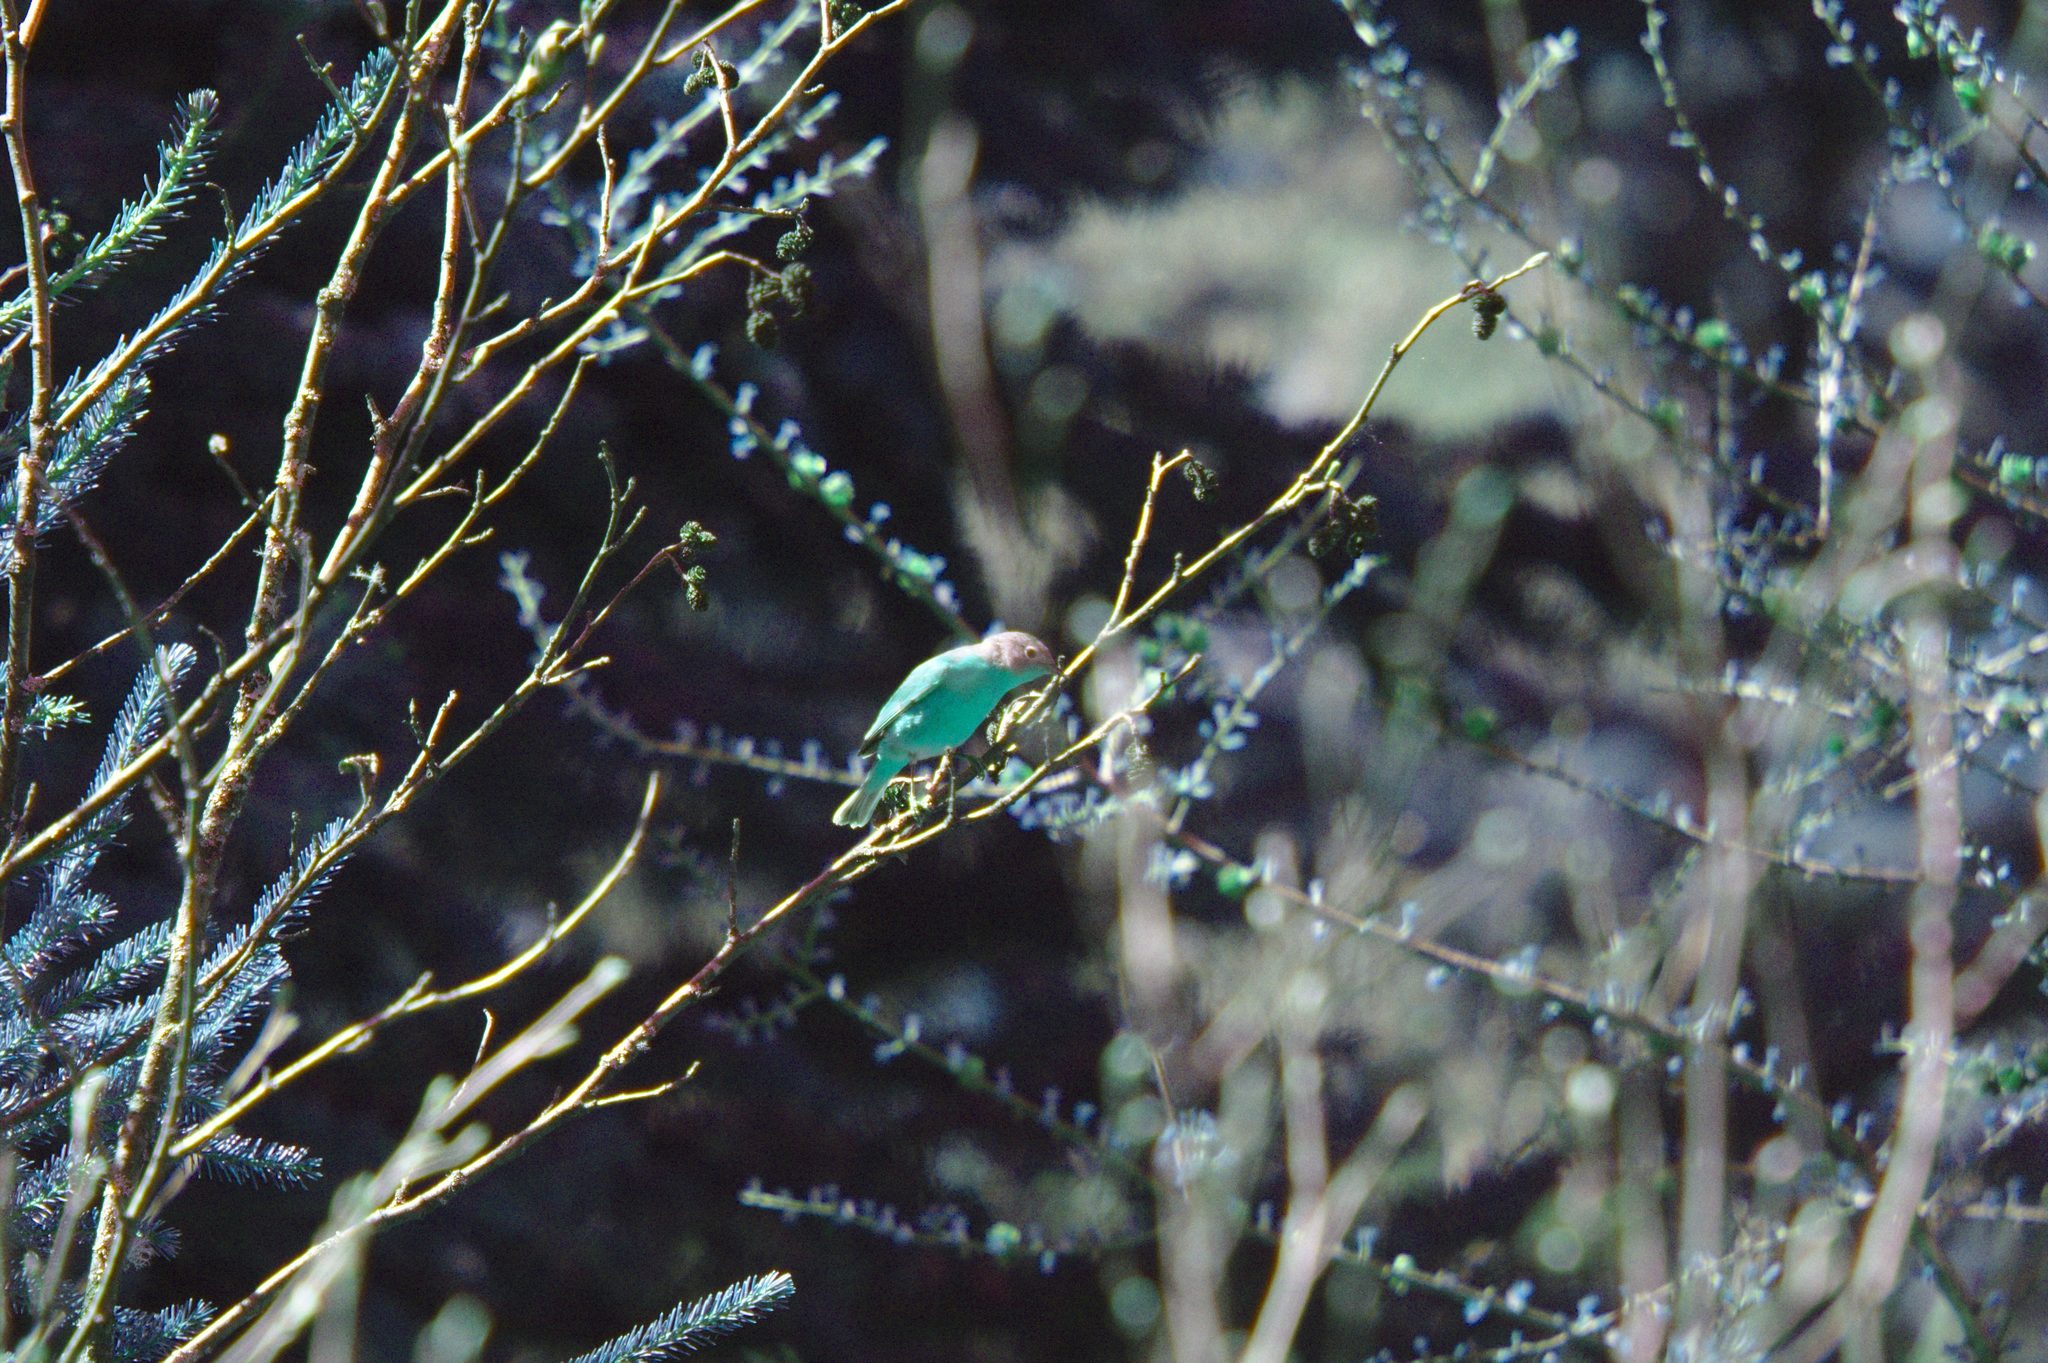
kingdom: Animalia
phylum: Chordata
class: Aves
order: Passeriformes
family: Parulidae
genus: Leiothlypis
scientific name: Leiothlypis ruficapilla
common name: Nashville warbler
